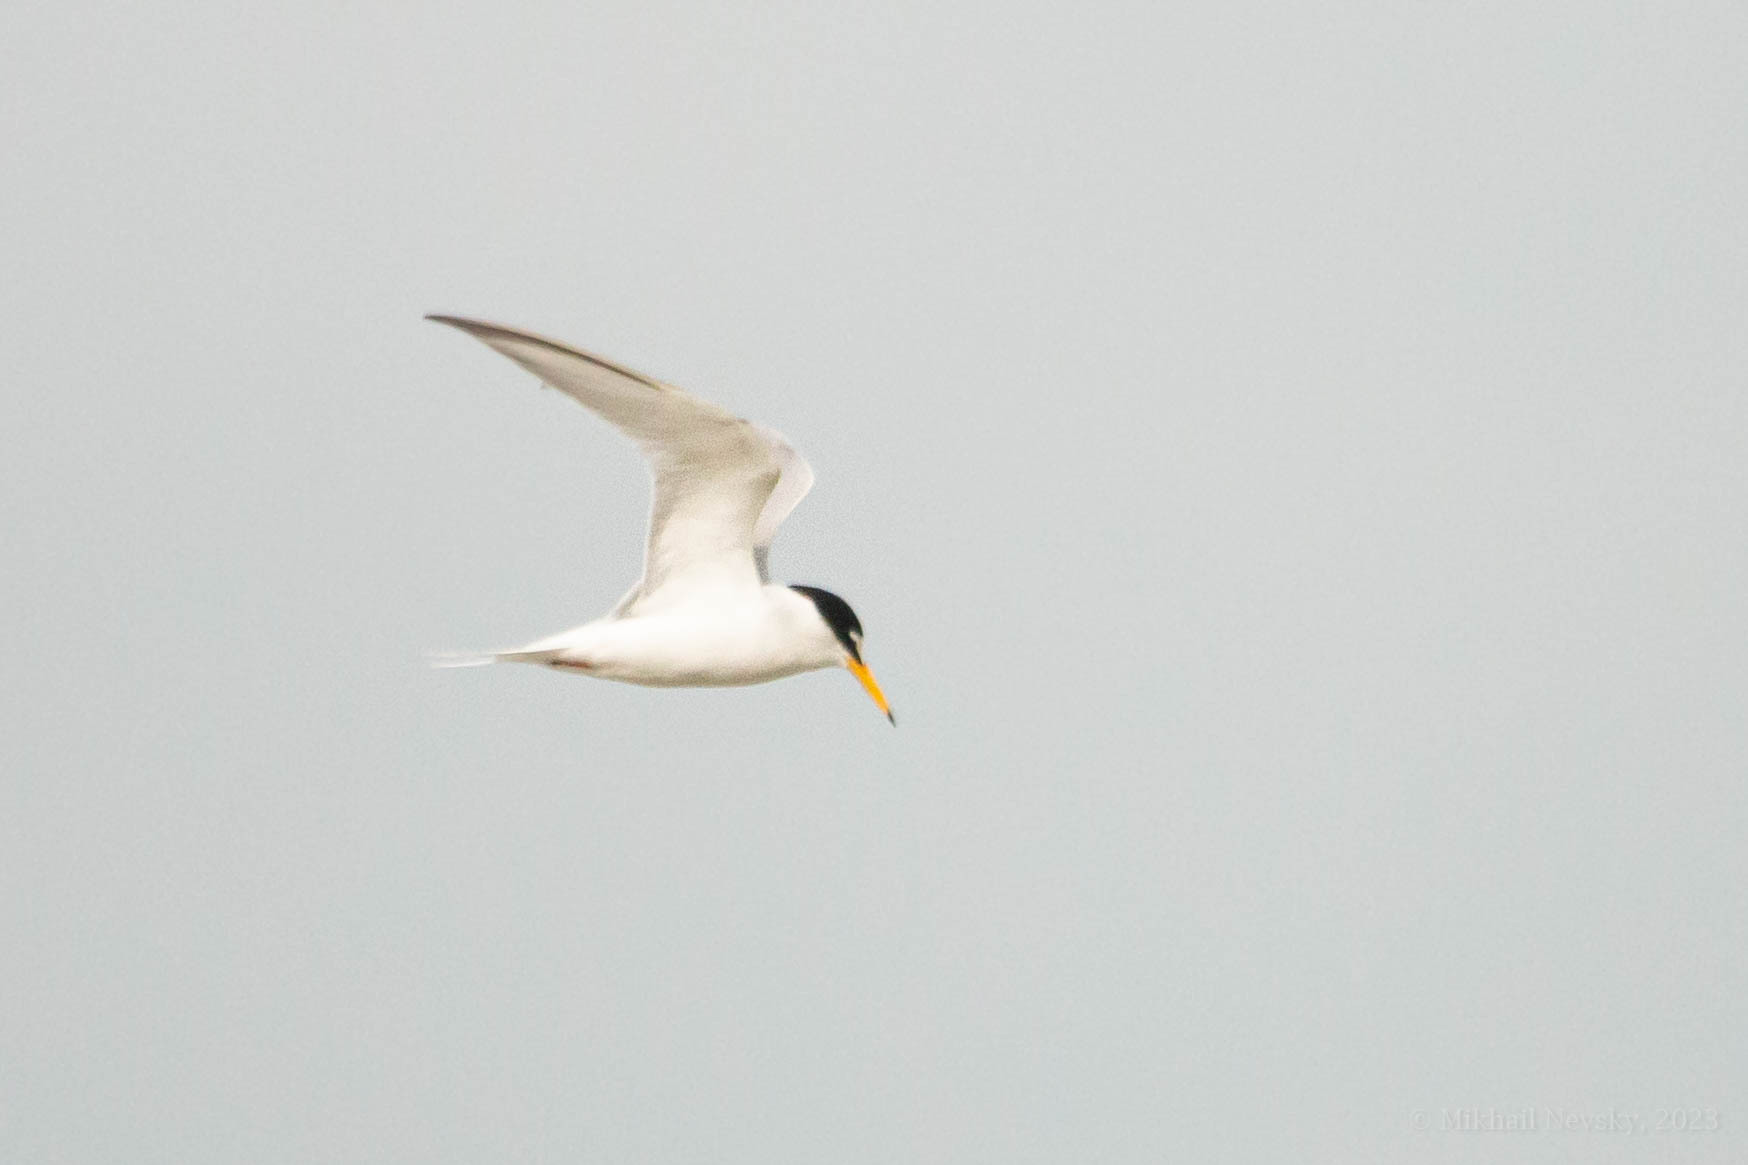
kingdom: Animalia
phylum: Chordata
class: Aves
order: Charadriiformes
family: Laridae
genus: Sternula
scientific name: Sternula albifrons
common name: Little tern
